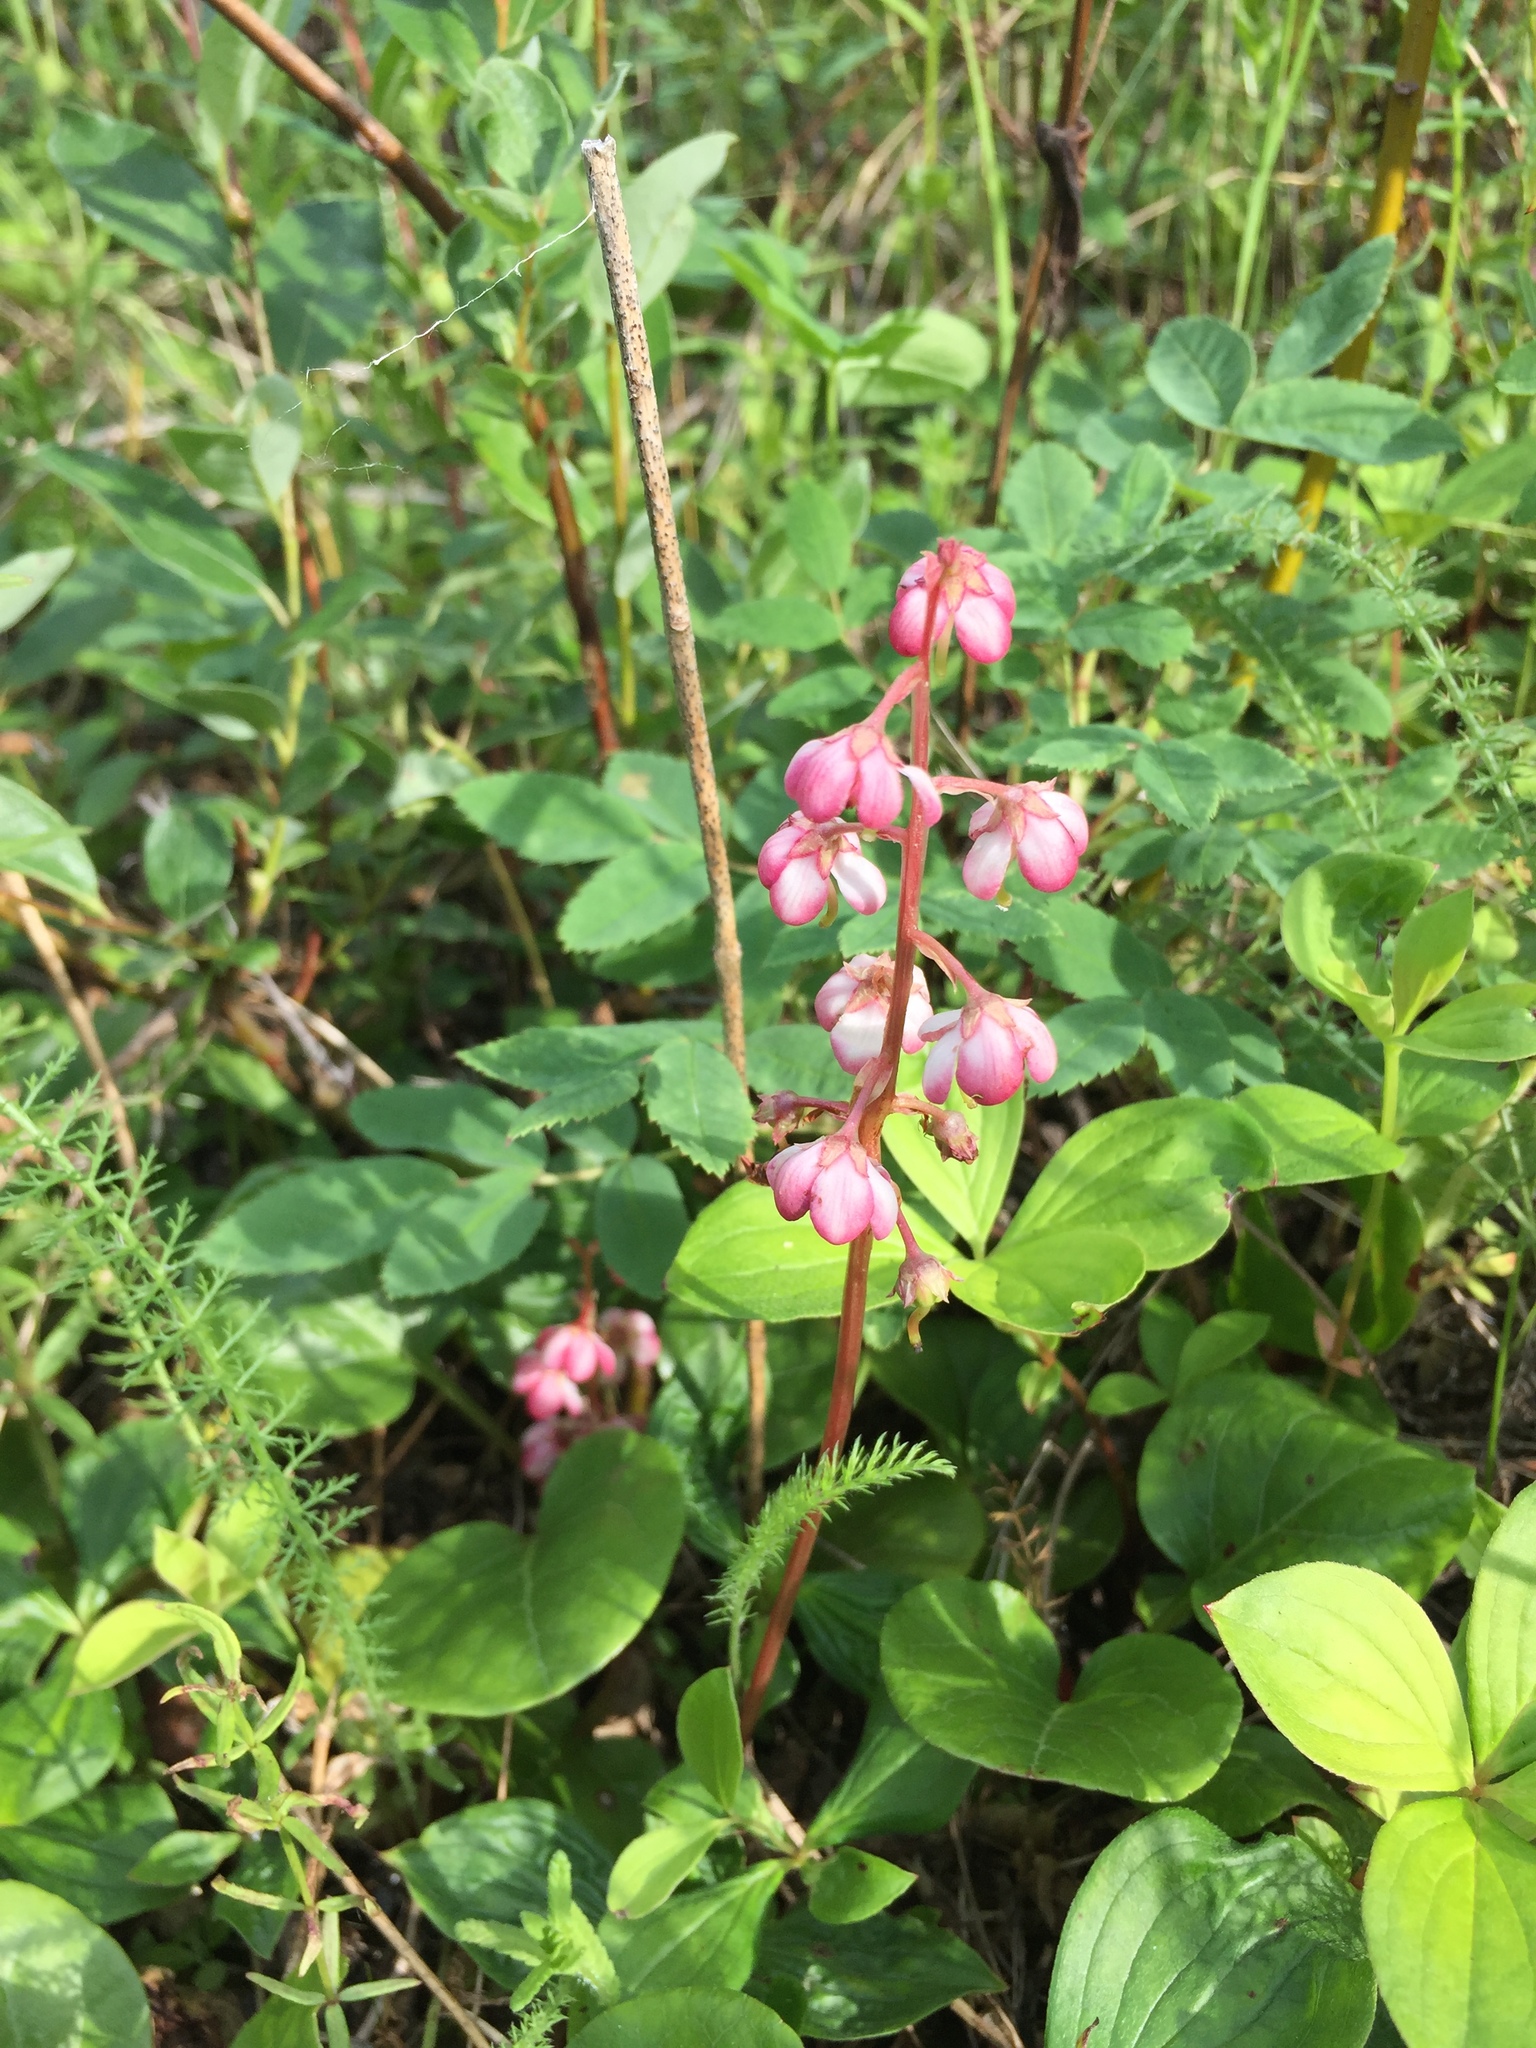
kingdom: Plantae
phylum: Tracheophyta
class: Magnoliopsida
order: Ericales
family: Ericaceae
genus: Pyrola
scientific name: Pyrola asarifolia
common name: Bog wintergreen
